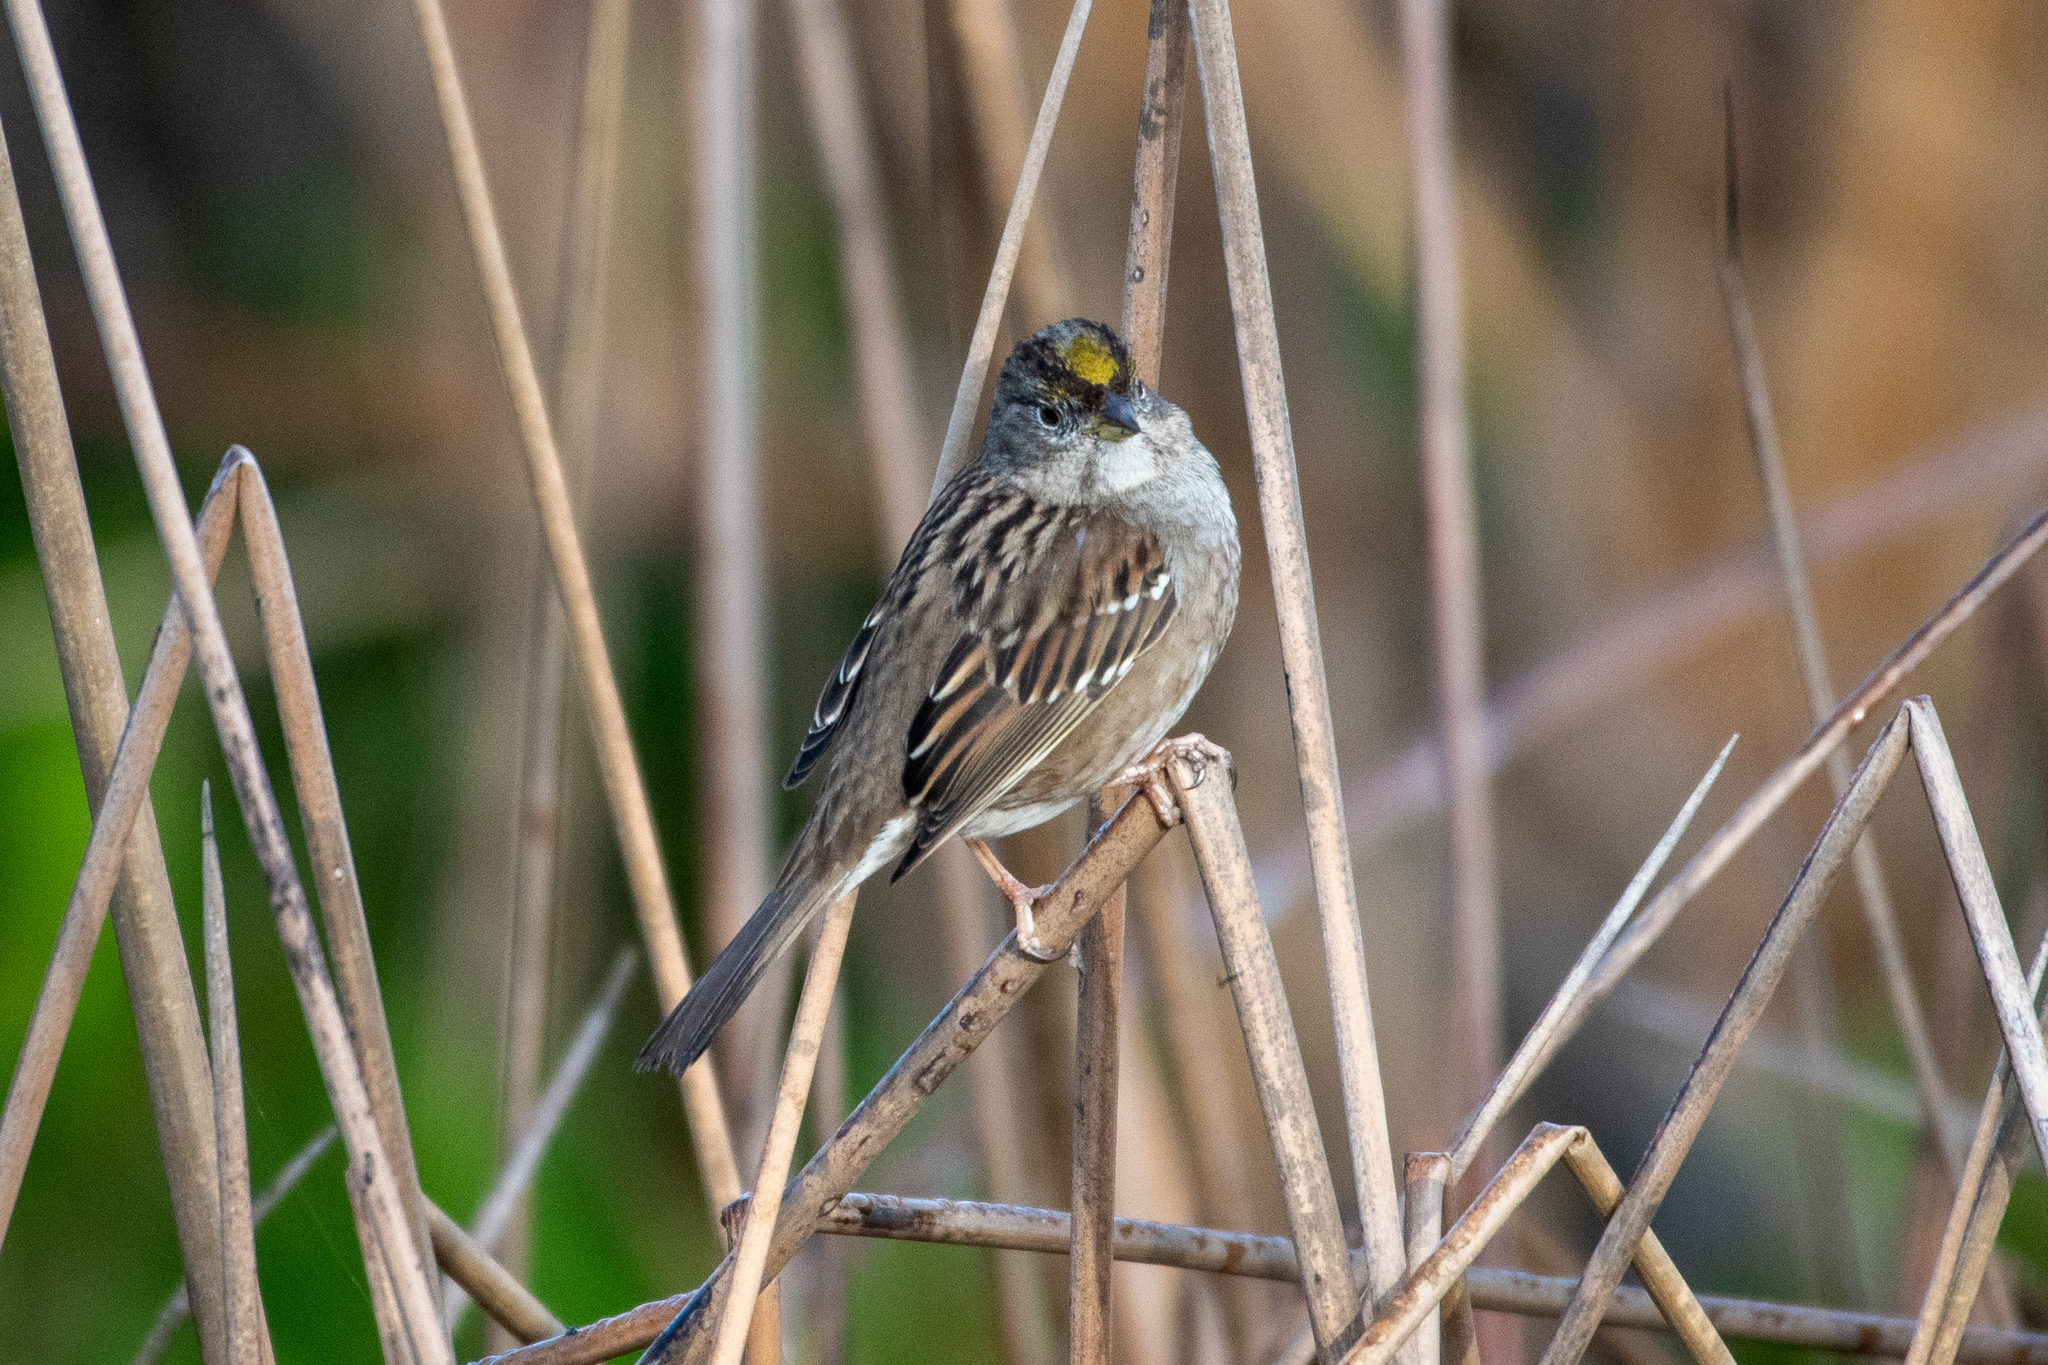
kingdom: Animalia
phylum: Chordata
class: Aves
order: Passeriformes
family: Passerellidae
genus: Zonotrichia
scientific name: Zonotrichia atricapilla
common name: Golden-crowned sparrow
